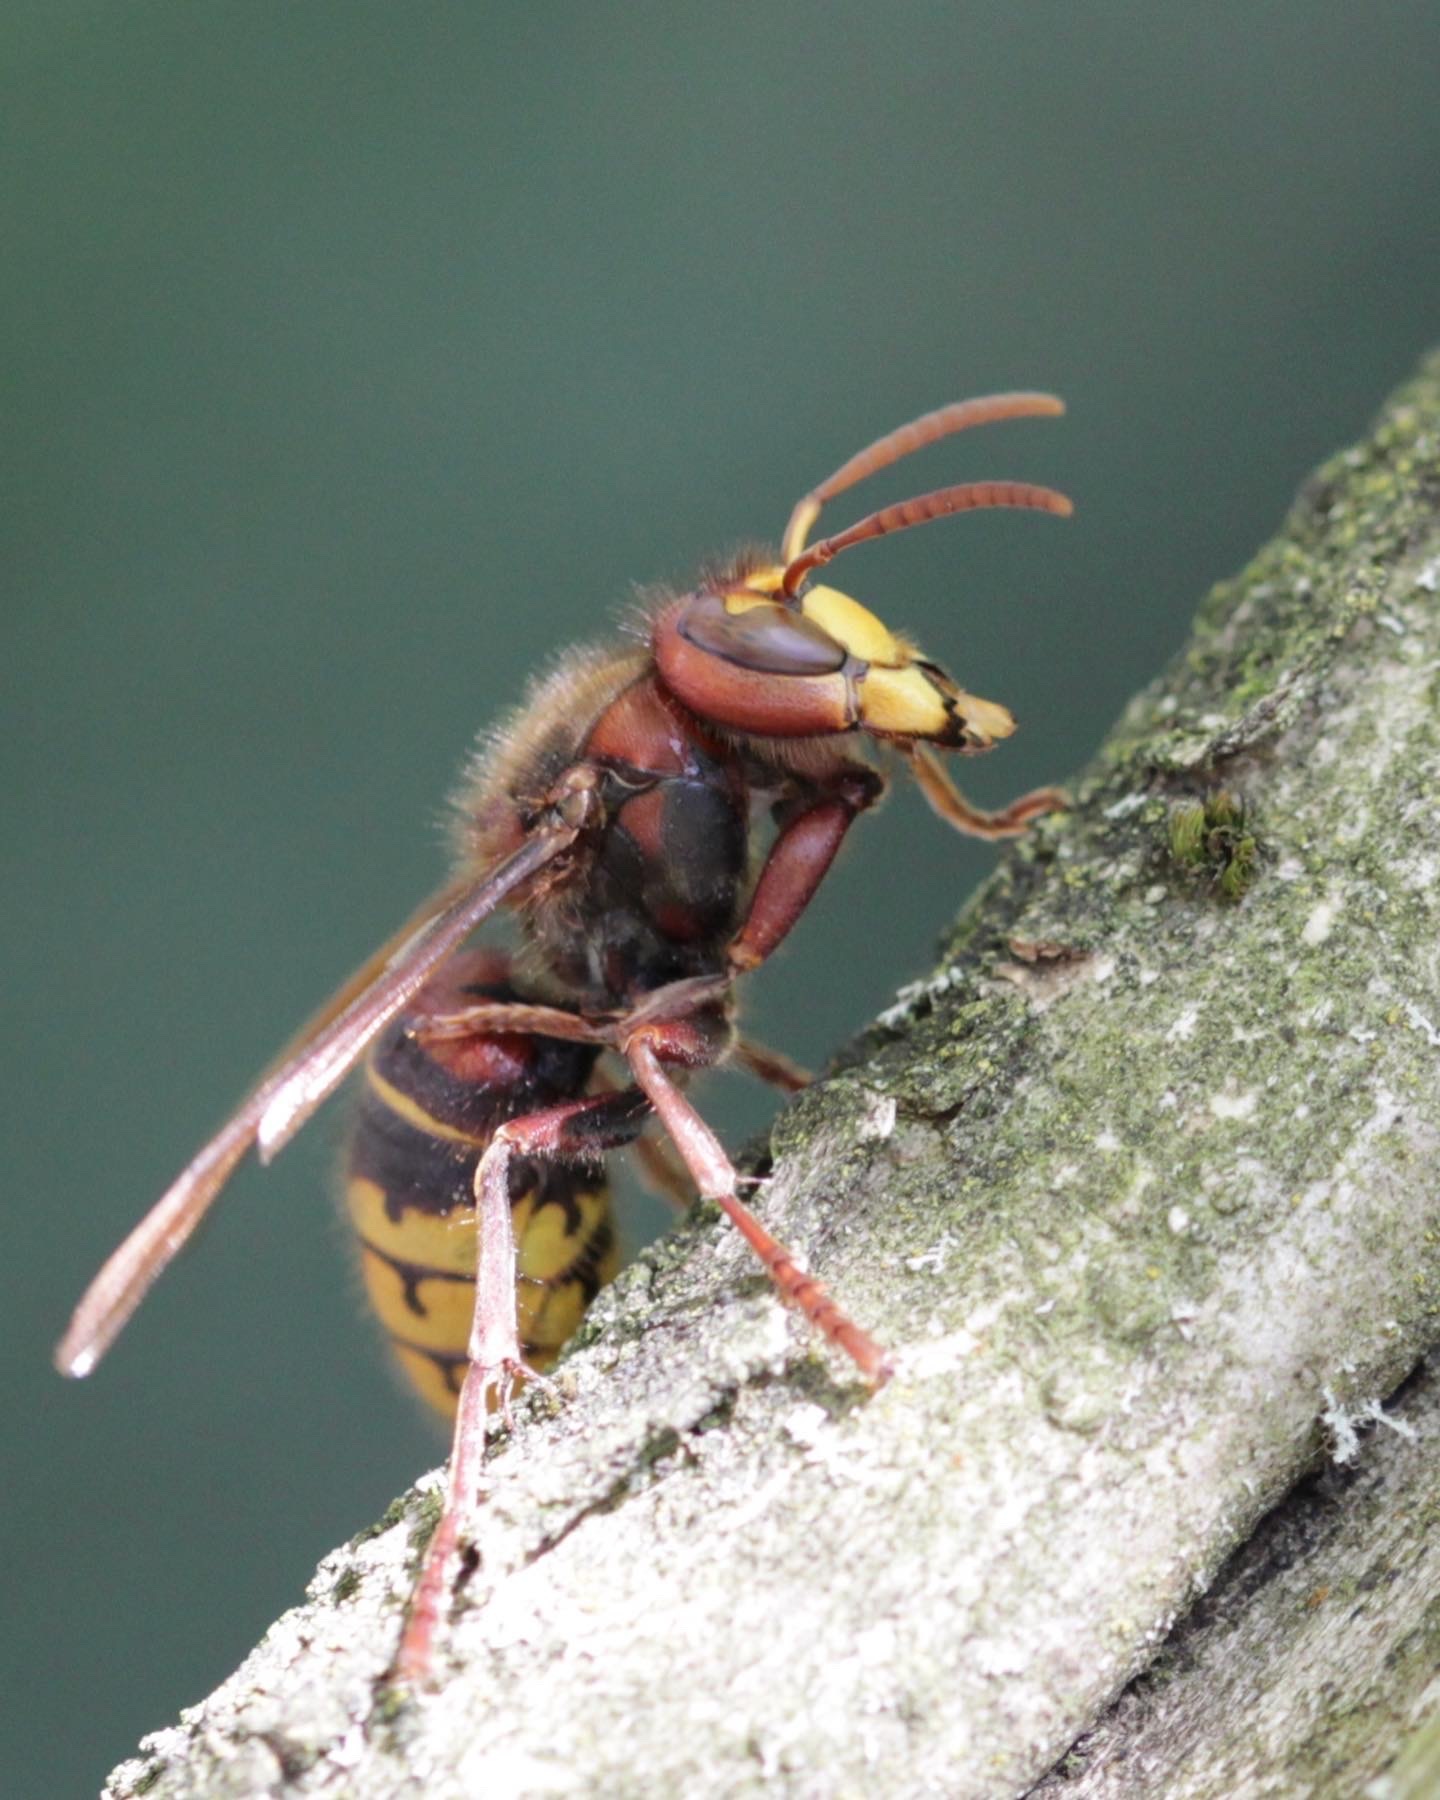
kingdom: Animalia
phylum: Arthropoda
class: Insecta
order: Hymenoptera
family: Vespidae
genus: Vespa
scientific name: Vespa crabro
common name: Hornet
